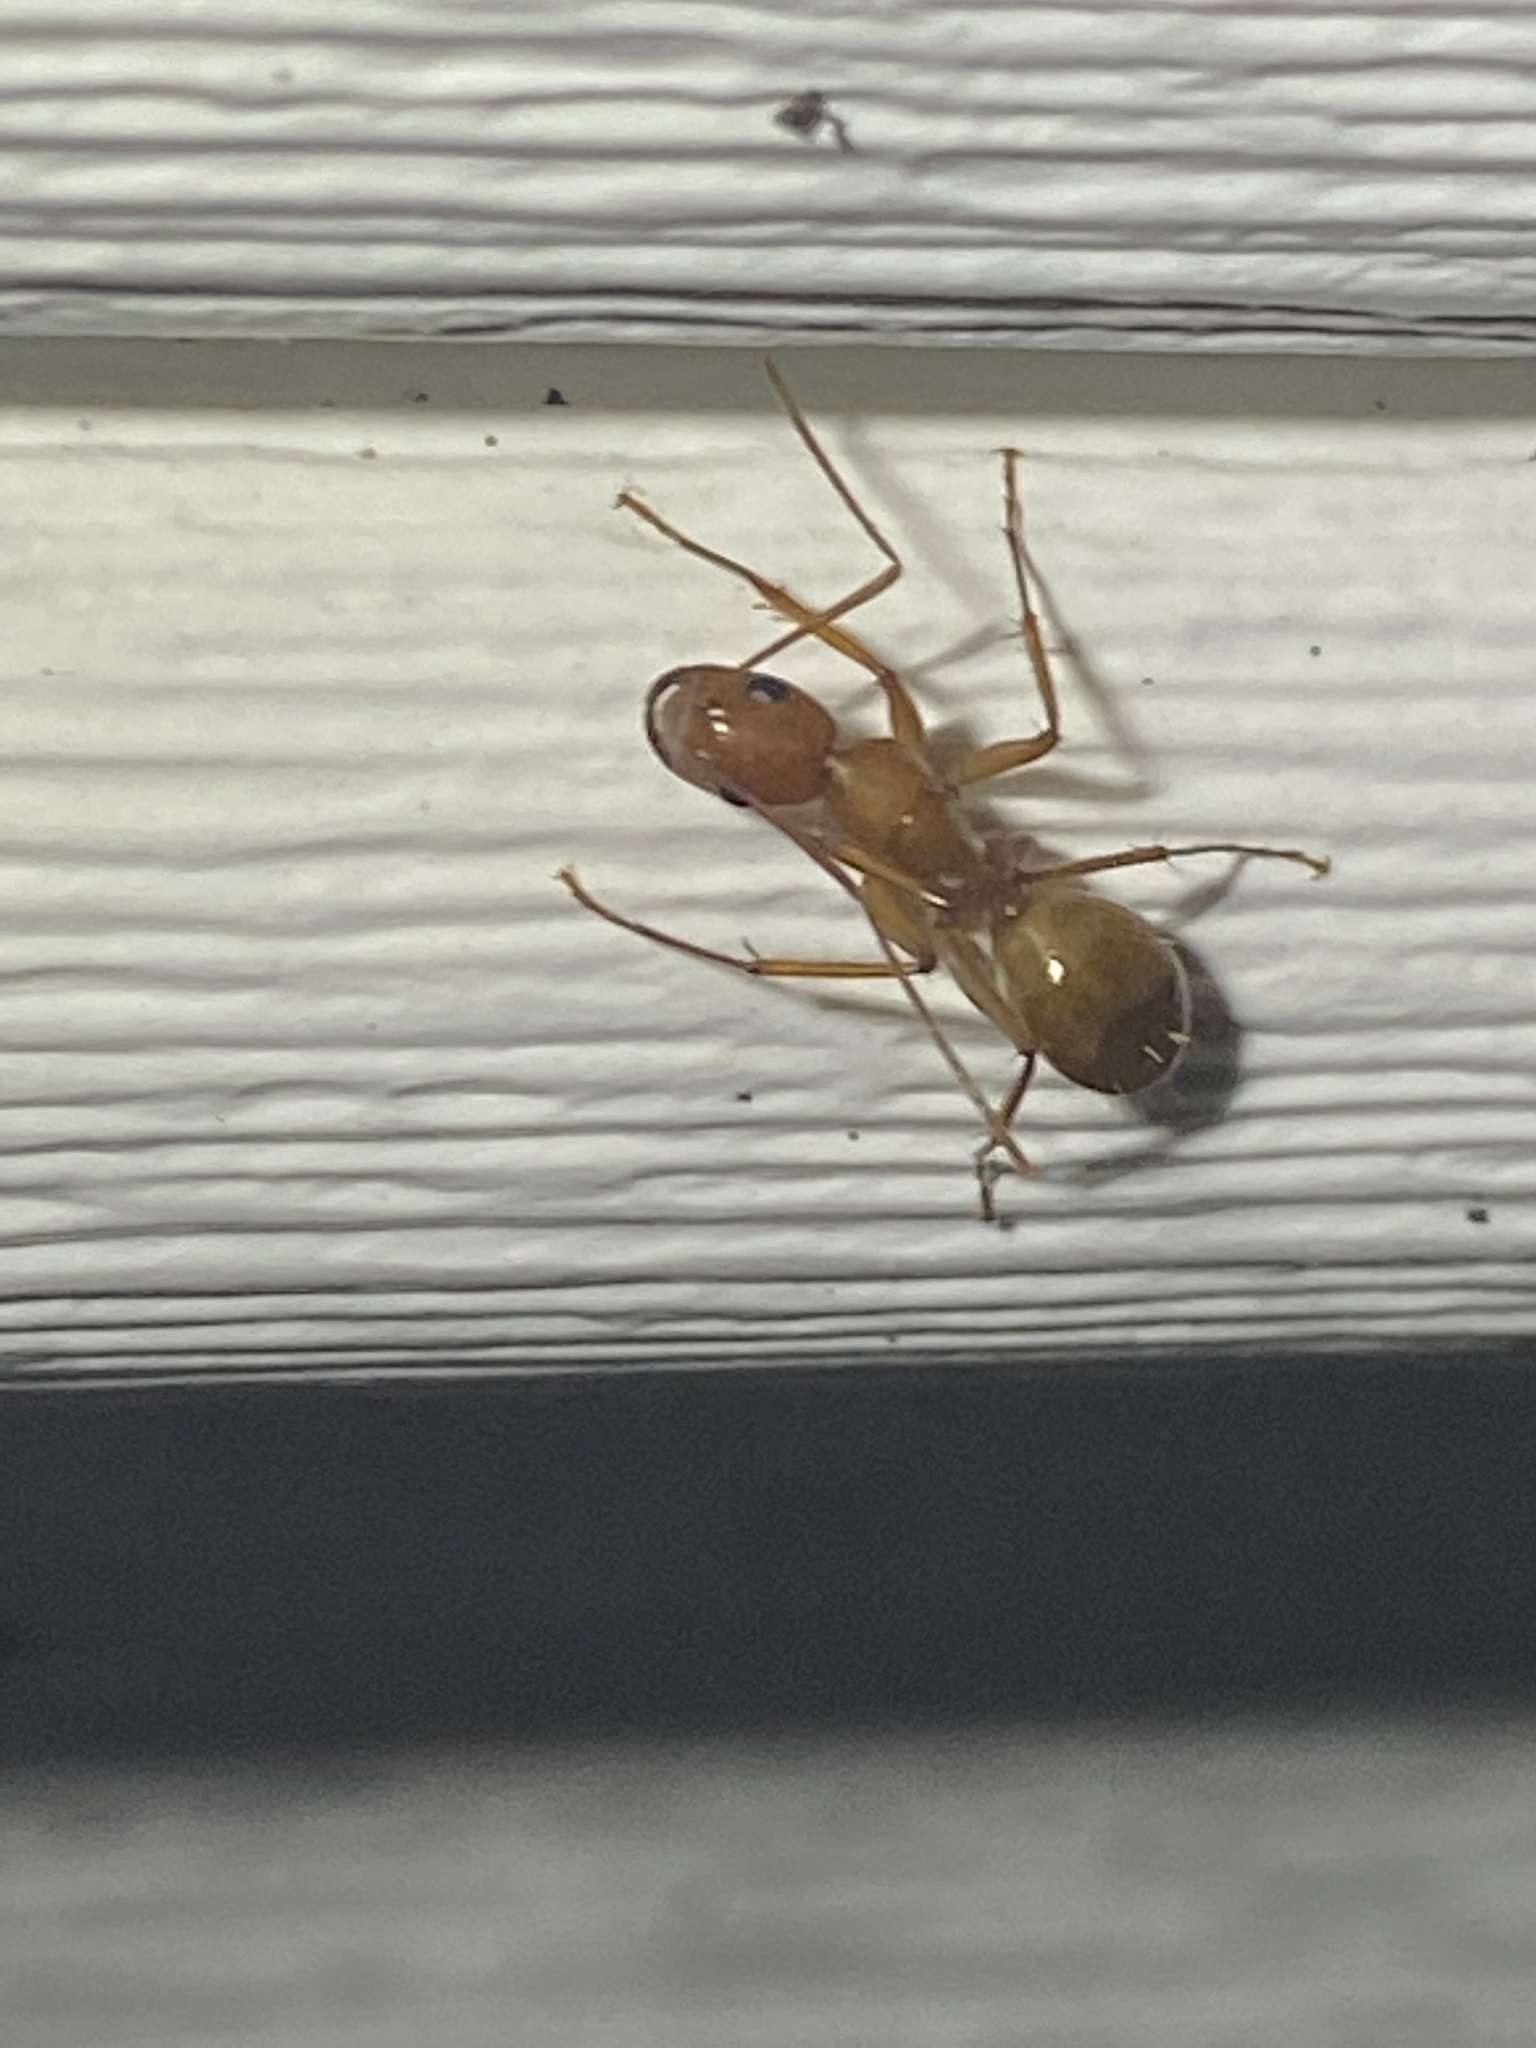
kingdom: Animalia
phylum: Arthropoda
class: Insecta
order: Hymenoptera
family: Formicidae
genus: Camponotus
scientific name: Camponotus castaneus
